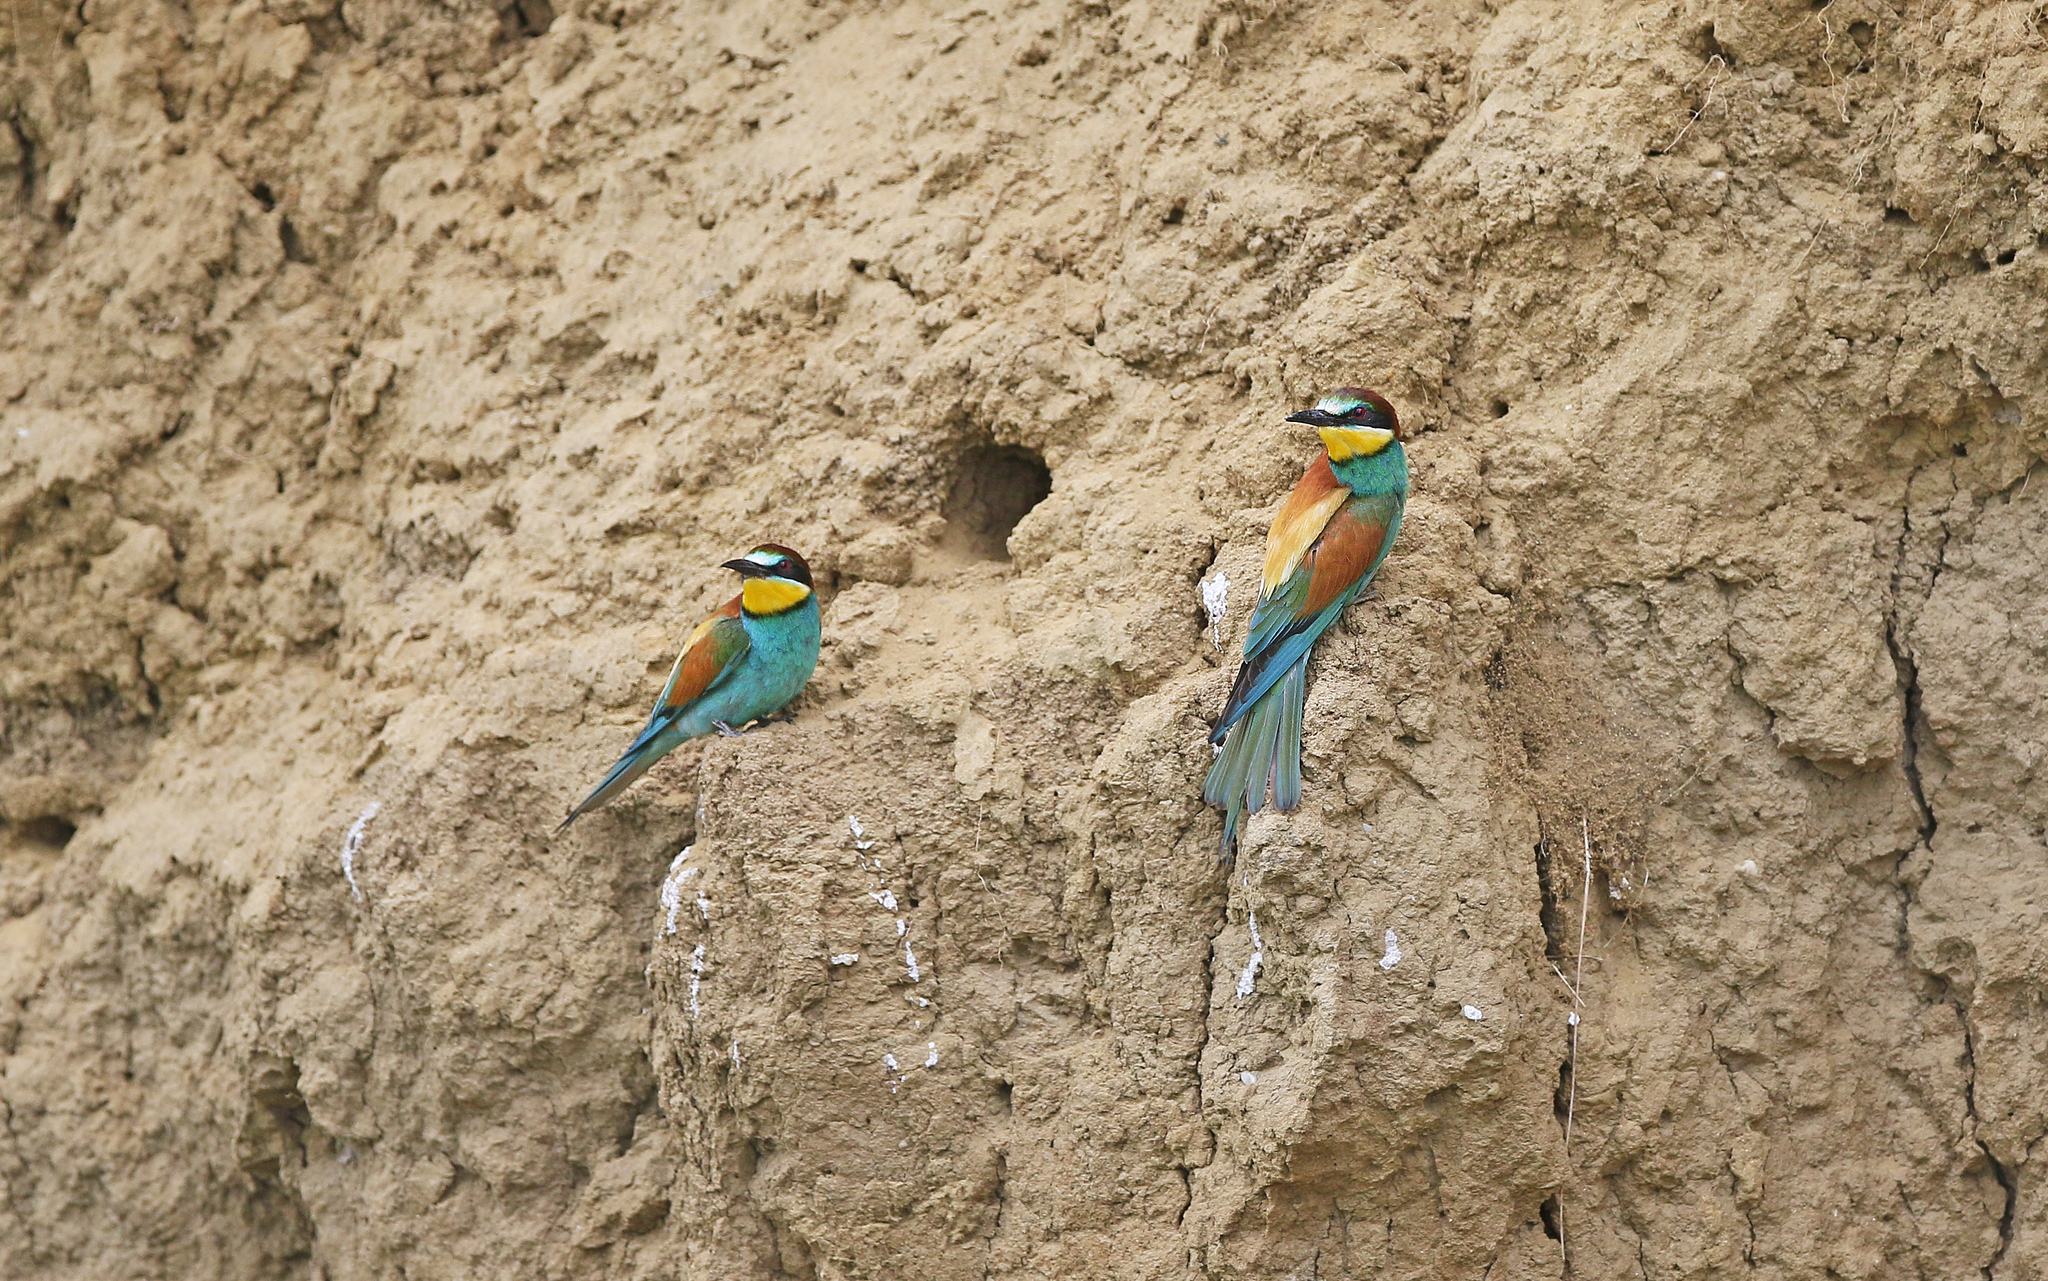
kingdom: Animalia
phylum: Chordata
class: Aves
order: Coraciiformes
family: Meropidae
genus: Merops
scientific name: Merops apiaster
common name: European bee-eater
